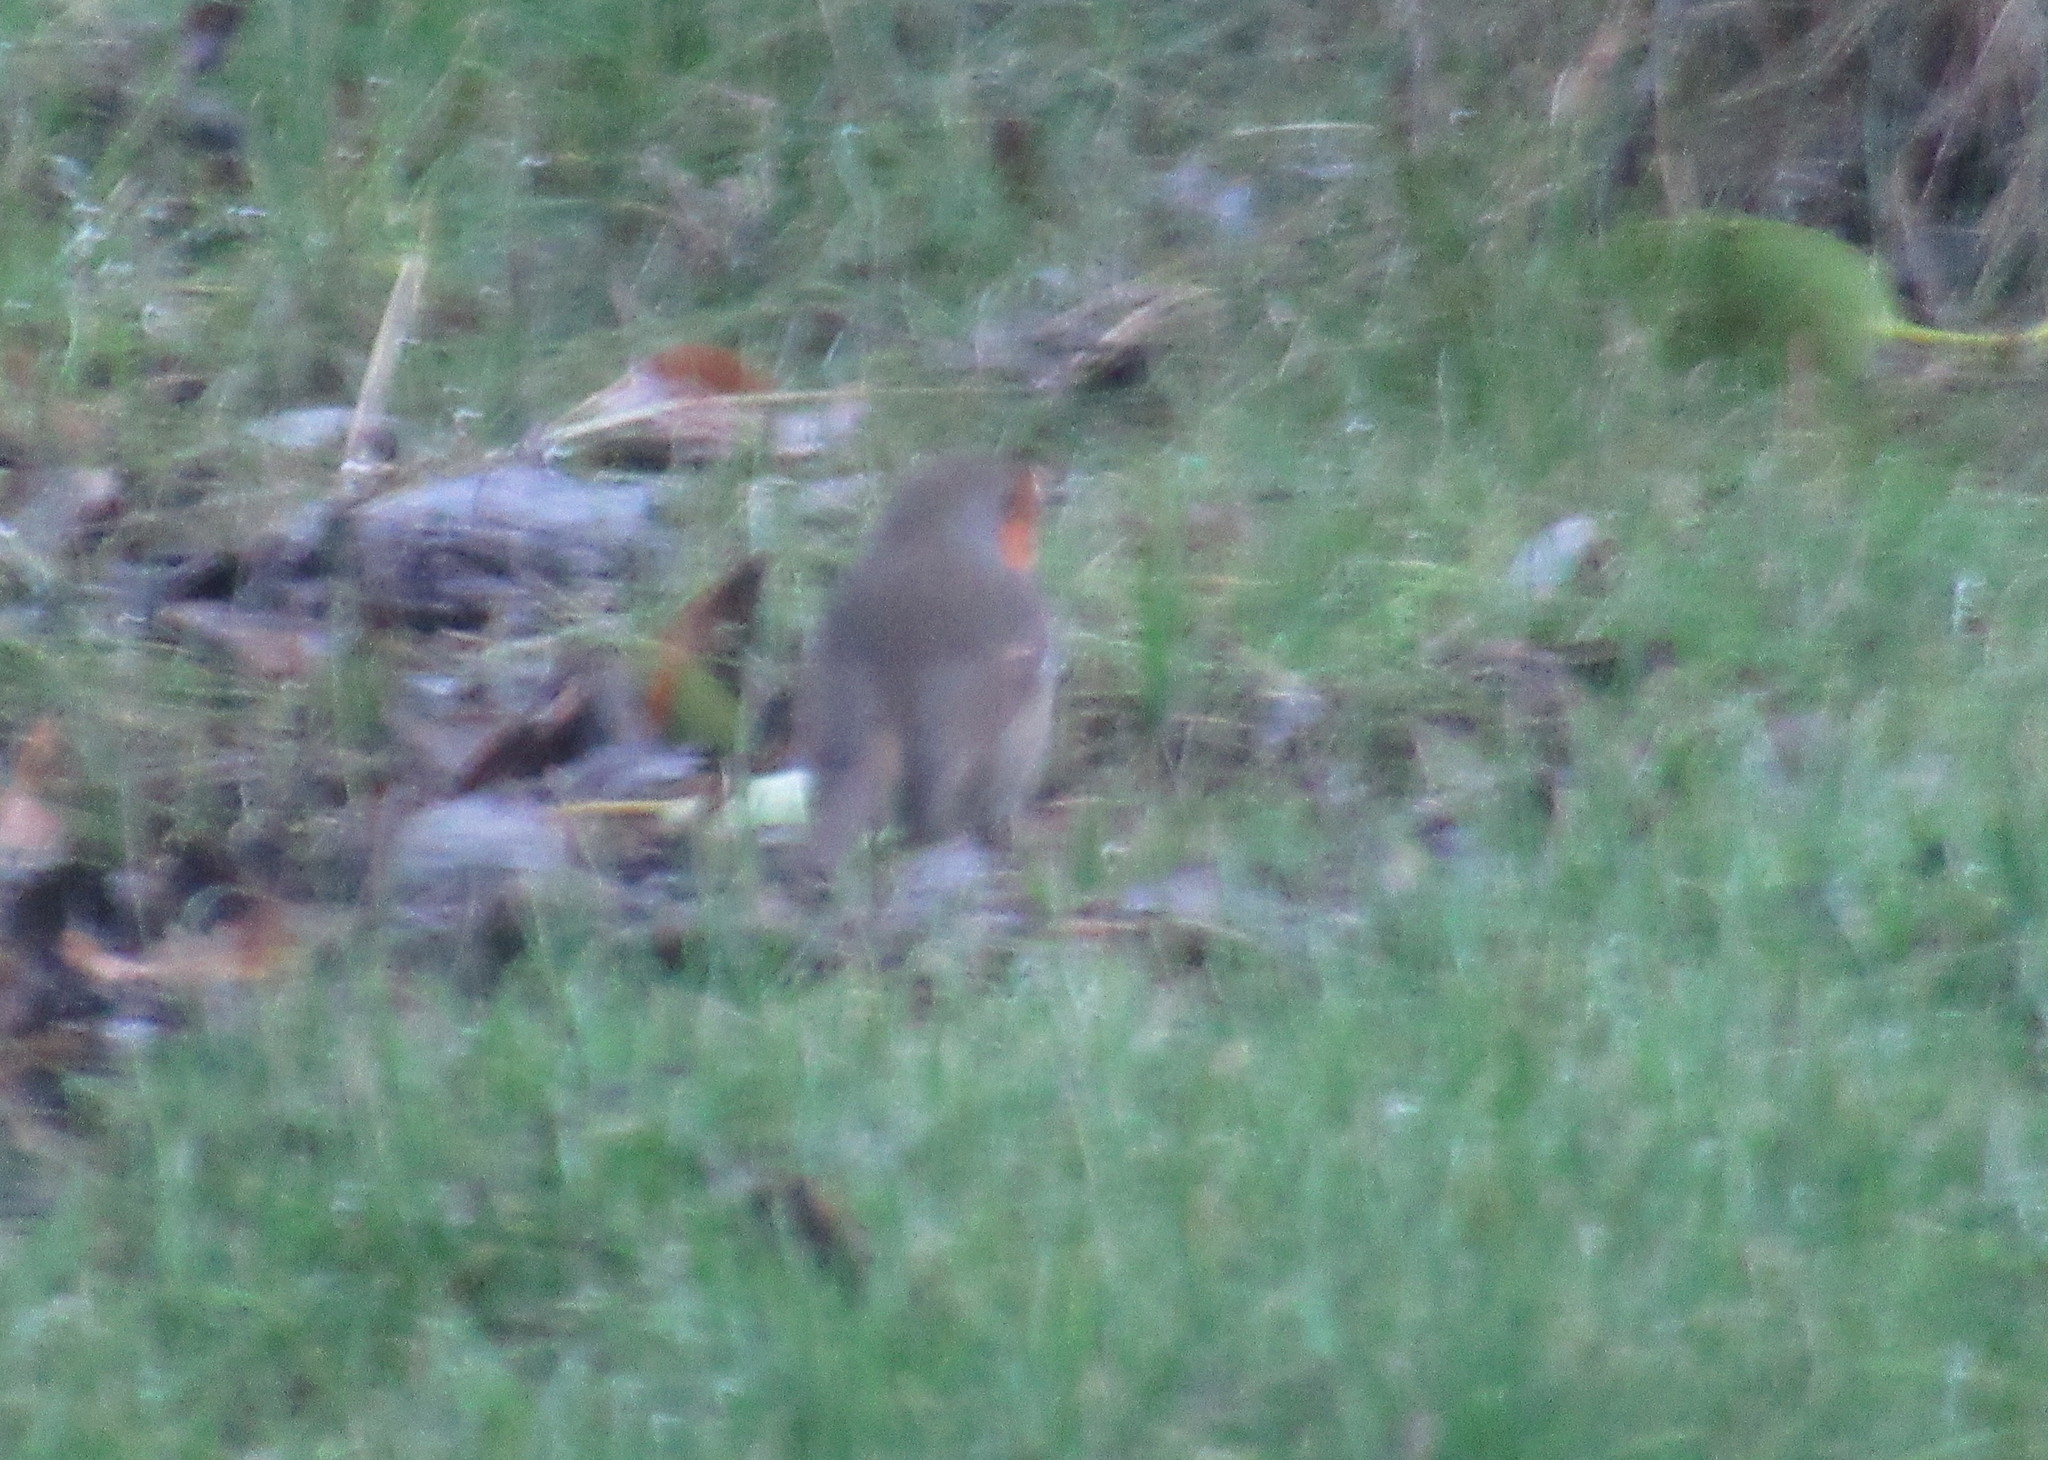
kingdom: Animalia
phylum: Chordata
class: Aves
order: Passeriformes
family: Muscicapidae
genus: Erithacus
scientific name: Erithacus rubecula
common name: European robin
